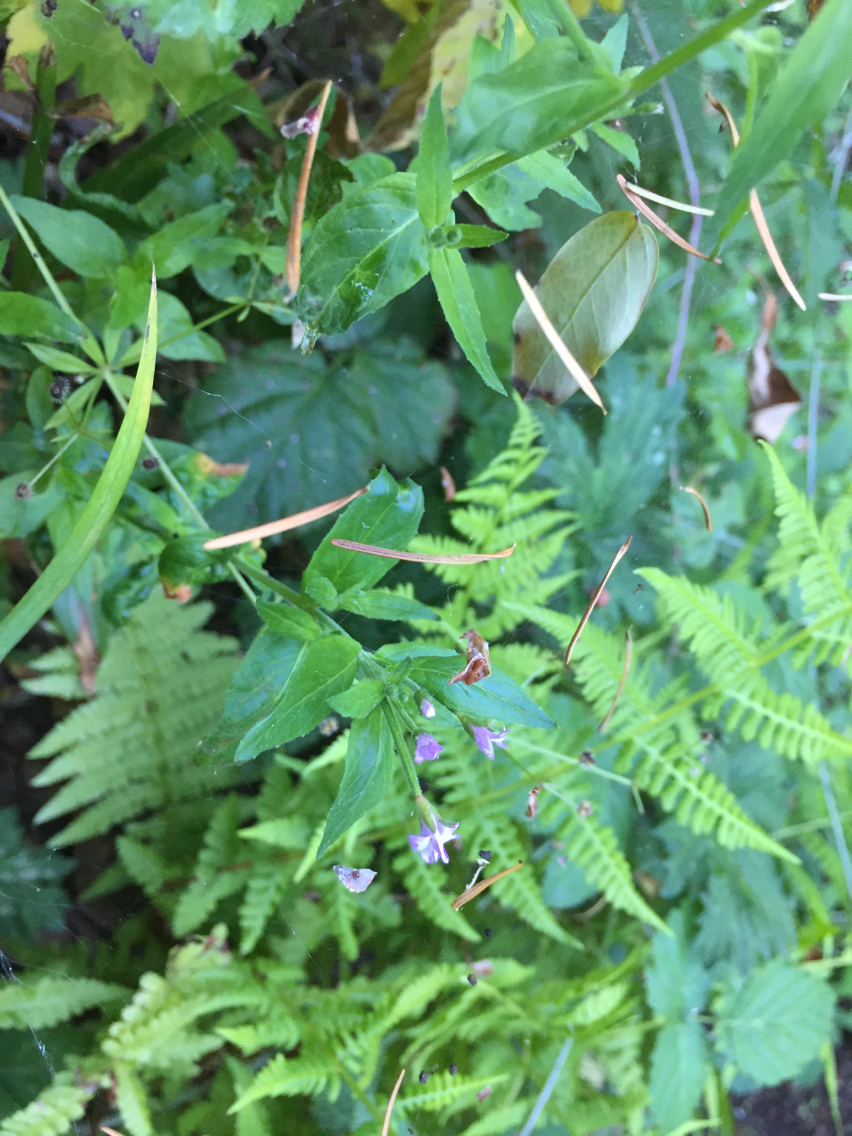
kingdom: Plantae
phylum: Tracheophyta
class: Magnoliopsida
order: Myrtales
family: Onagraceae
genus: Epilobium
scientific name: Epilobium ciliatum
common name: American willowherb
